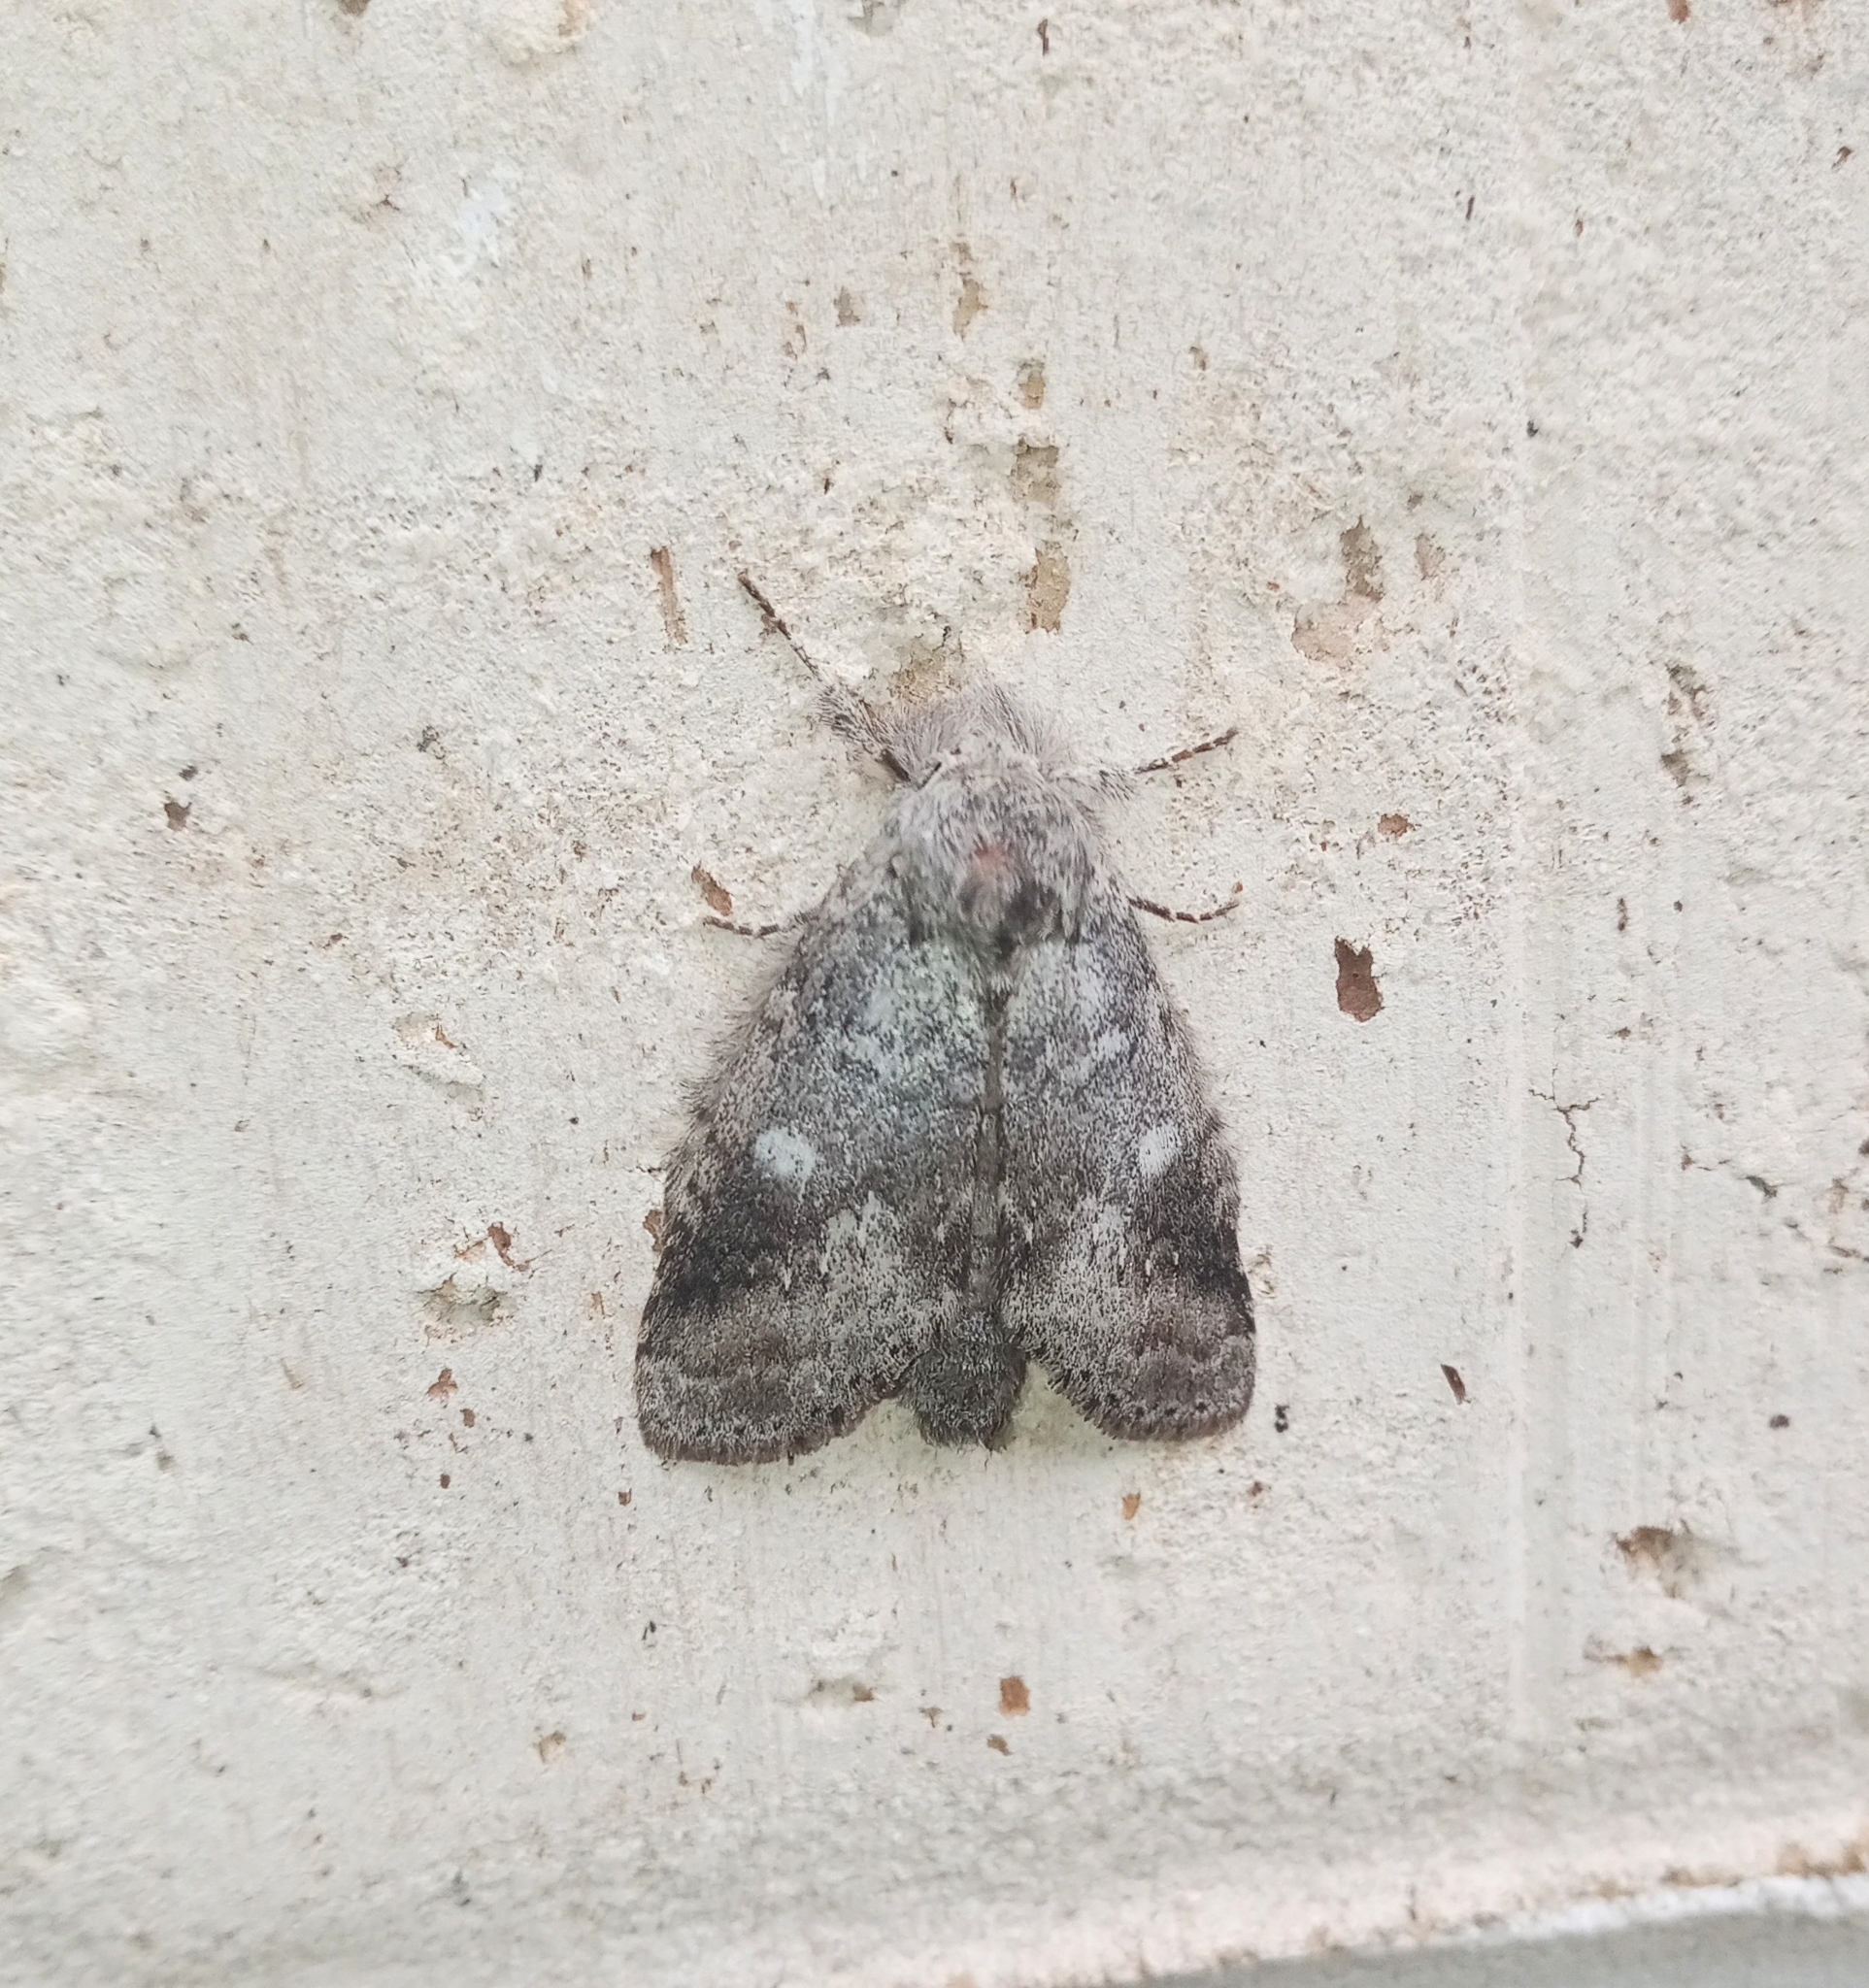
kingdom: Animalia
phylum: Arthropoda
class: Insecta
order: Lepidoptera
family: Notodontidae
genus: Lochmaeus
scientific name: Lochmaeus manteo
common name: Variable oakleaf caterpillar moth
